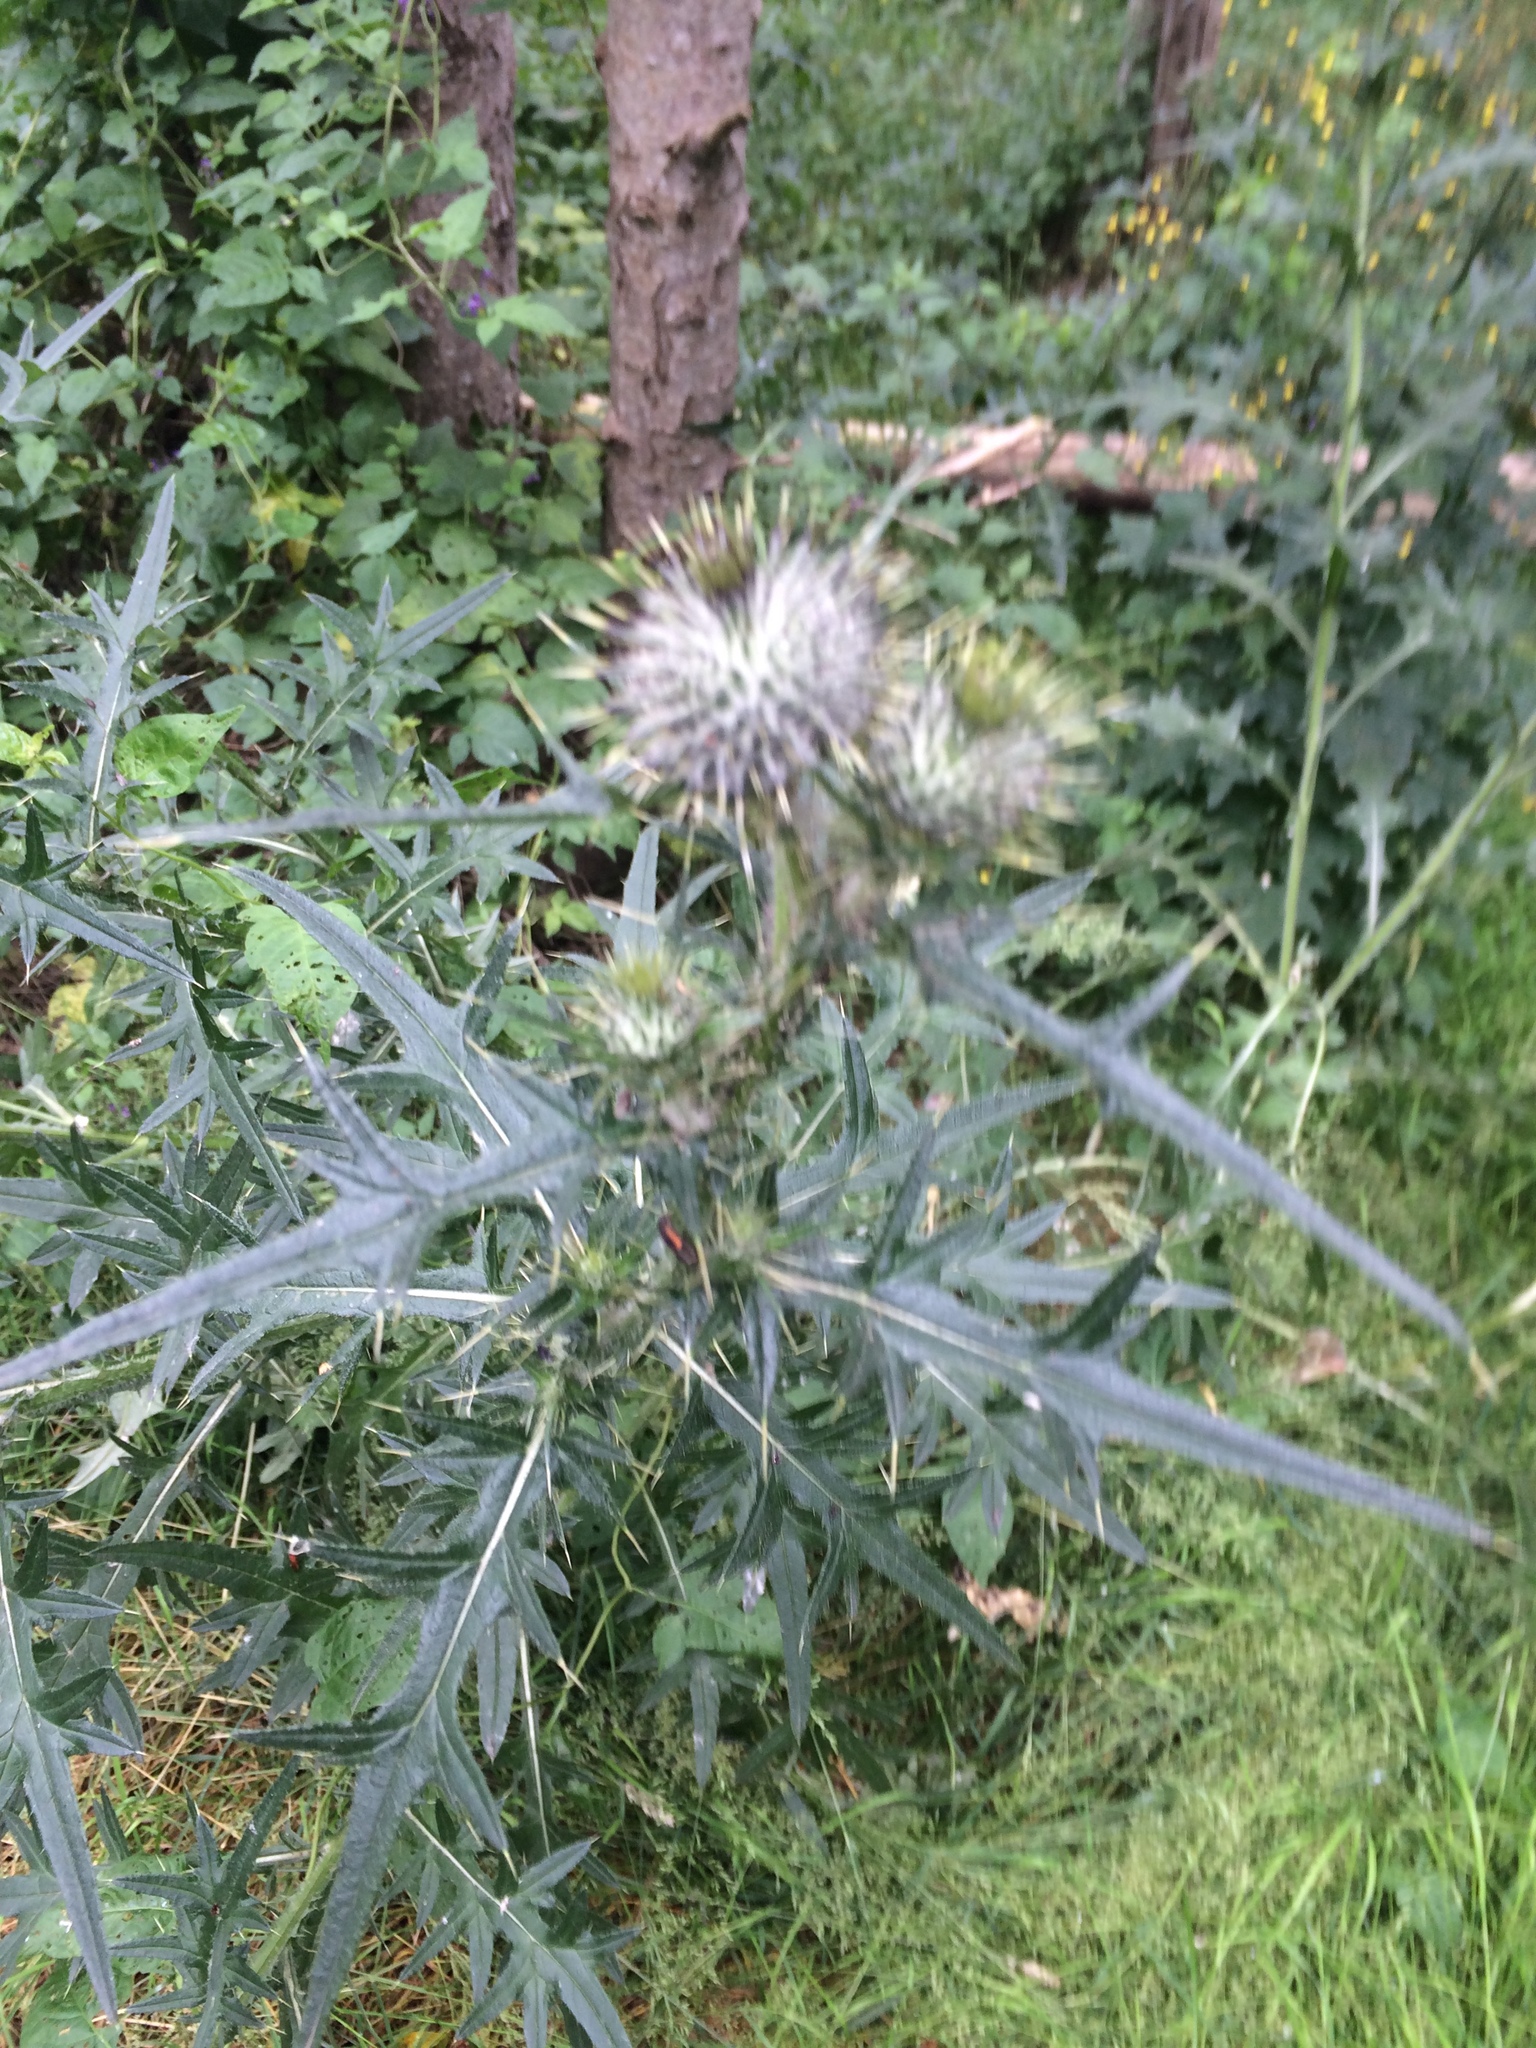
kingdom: Plantae
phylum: Tracheophyta
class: Magnoliopsida
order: Asterales
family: Asteraceae
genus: Cirsium
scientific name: Cirsium vulgare
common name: Bull thistle
